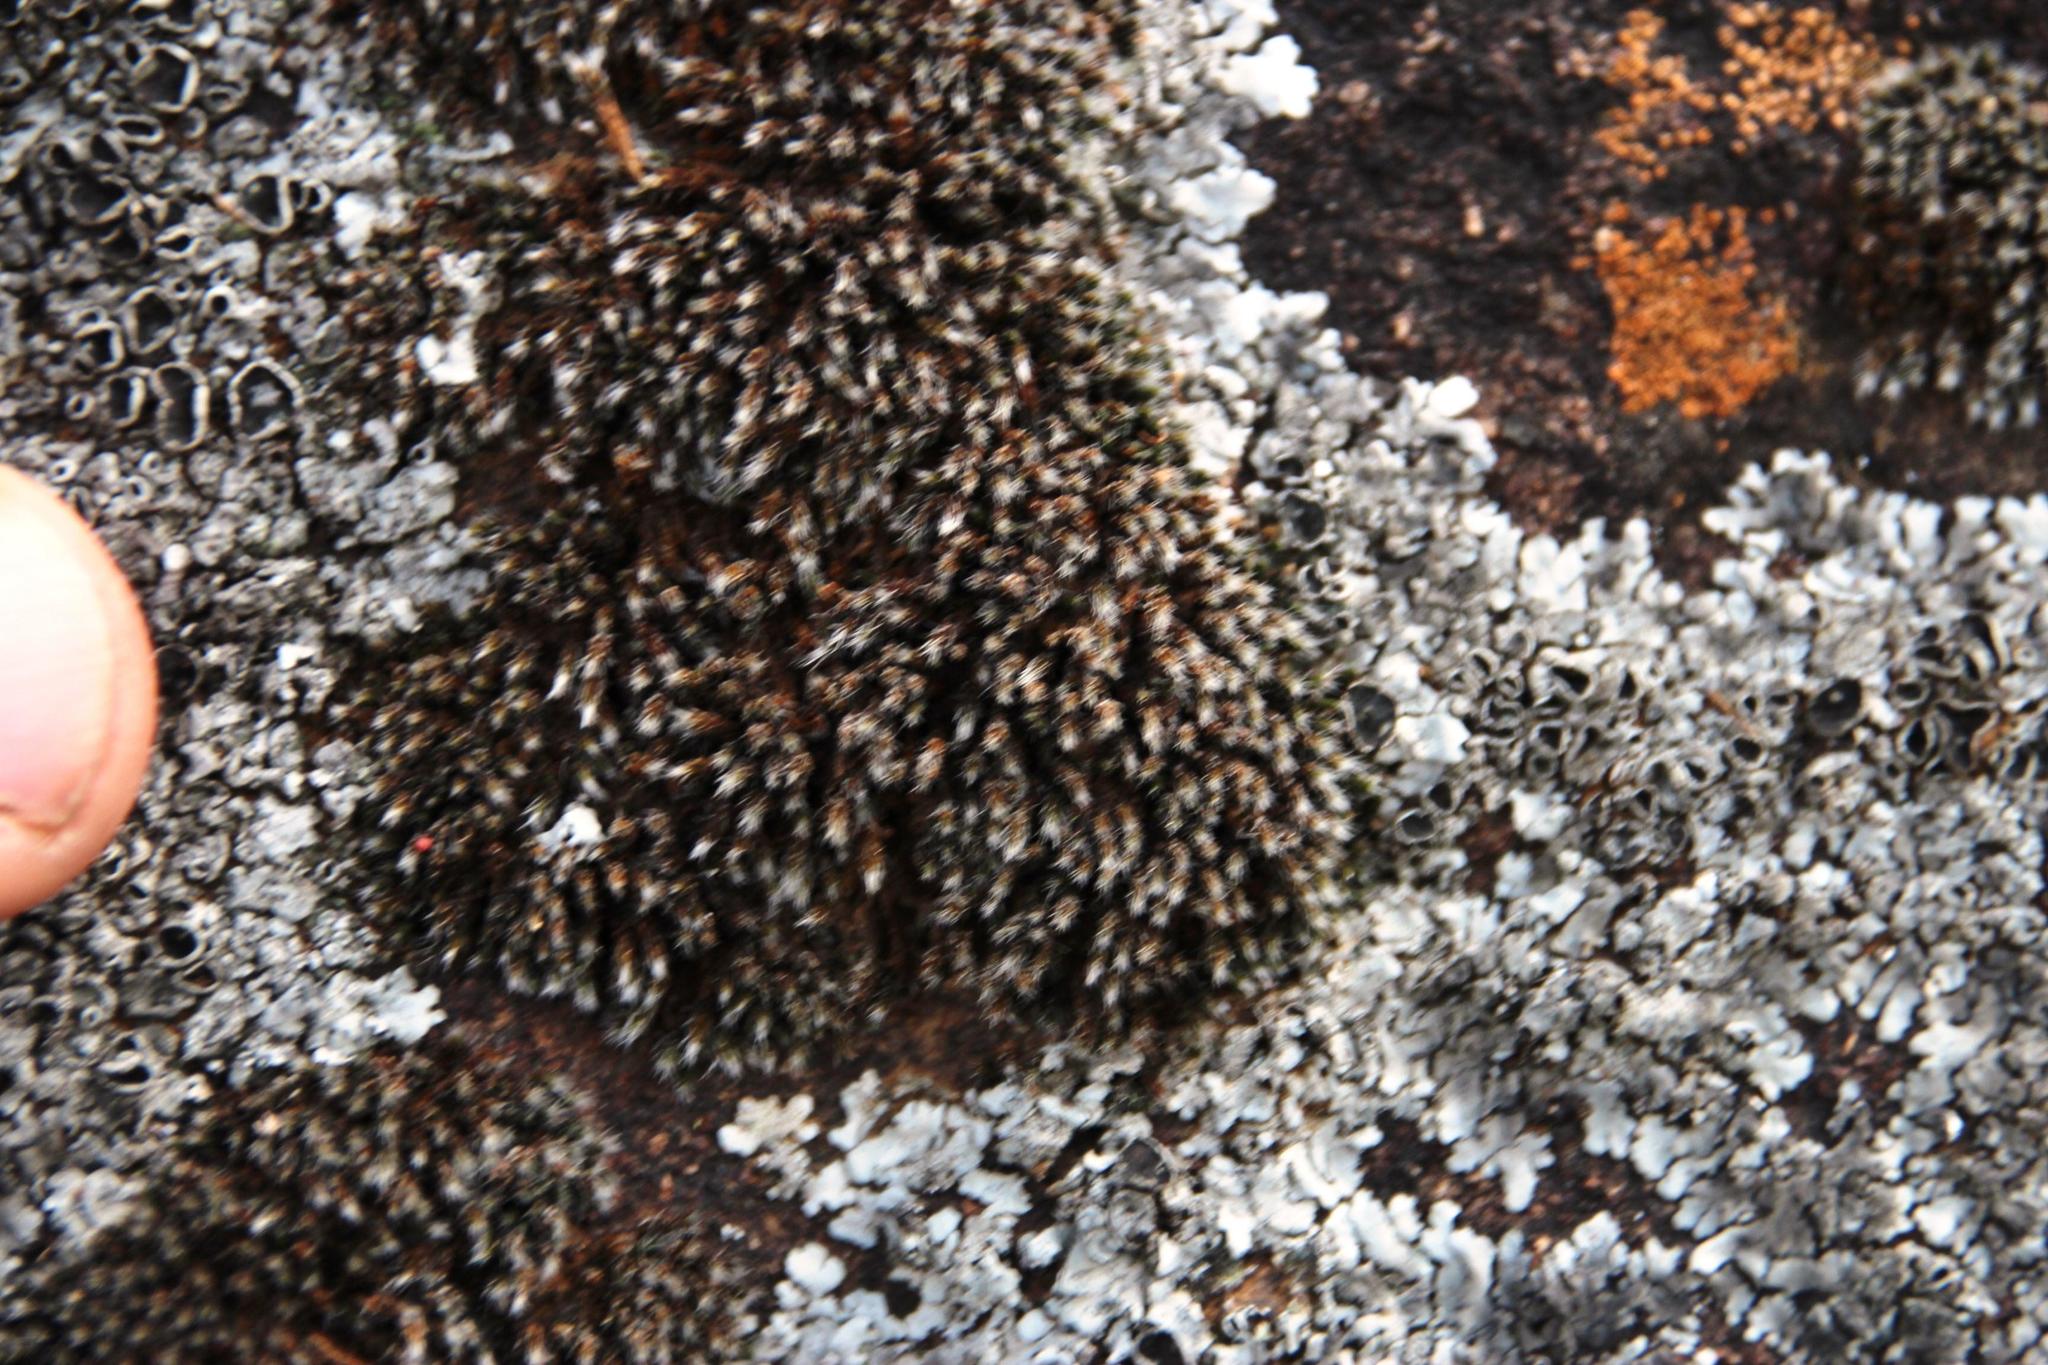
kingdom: Plantae
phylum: Bryophyta
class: Bryopsida
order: Grimmiales
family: Grimmiaceae
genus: Grimmia
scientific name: Grimmia laevigata
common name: Hoary grimmia
